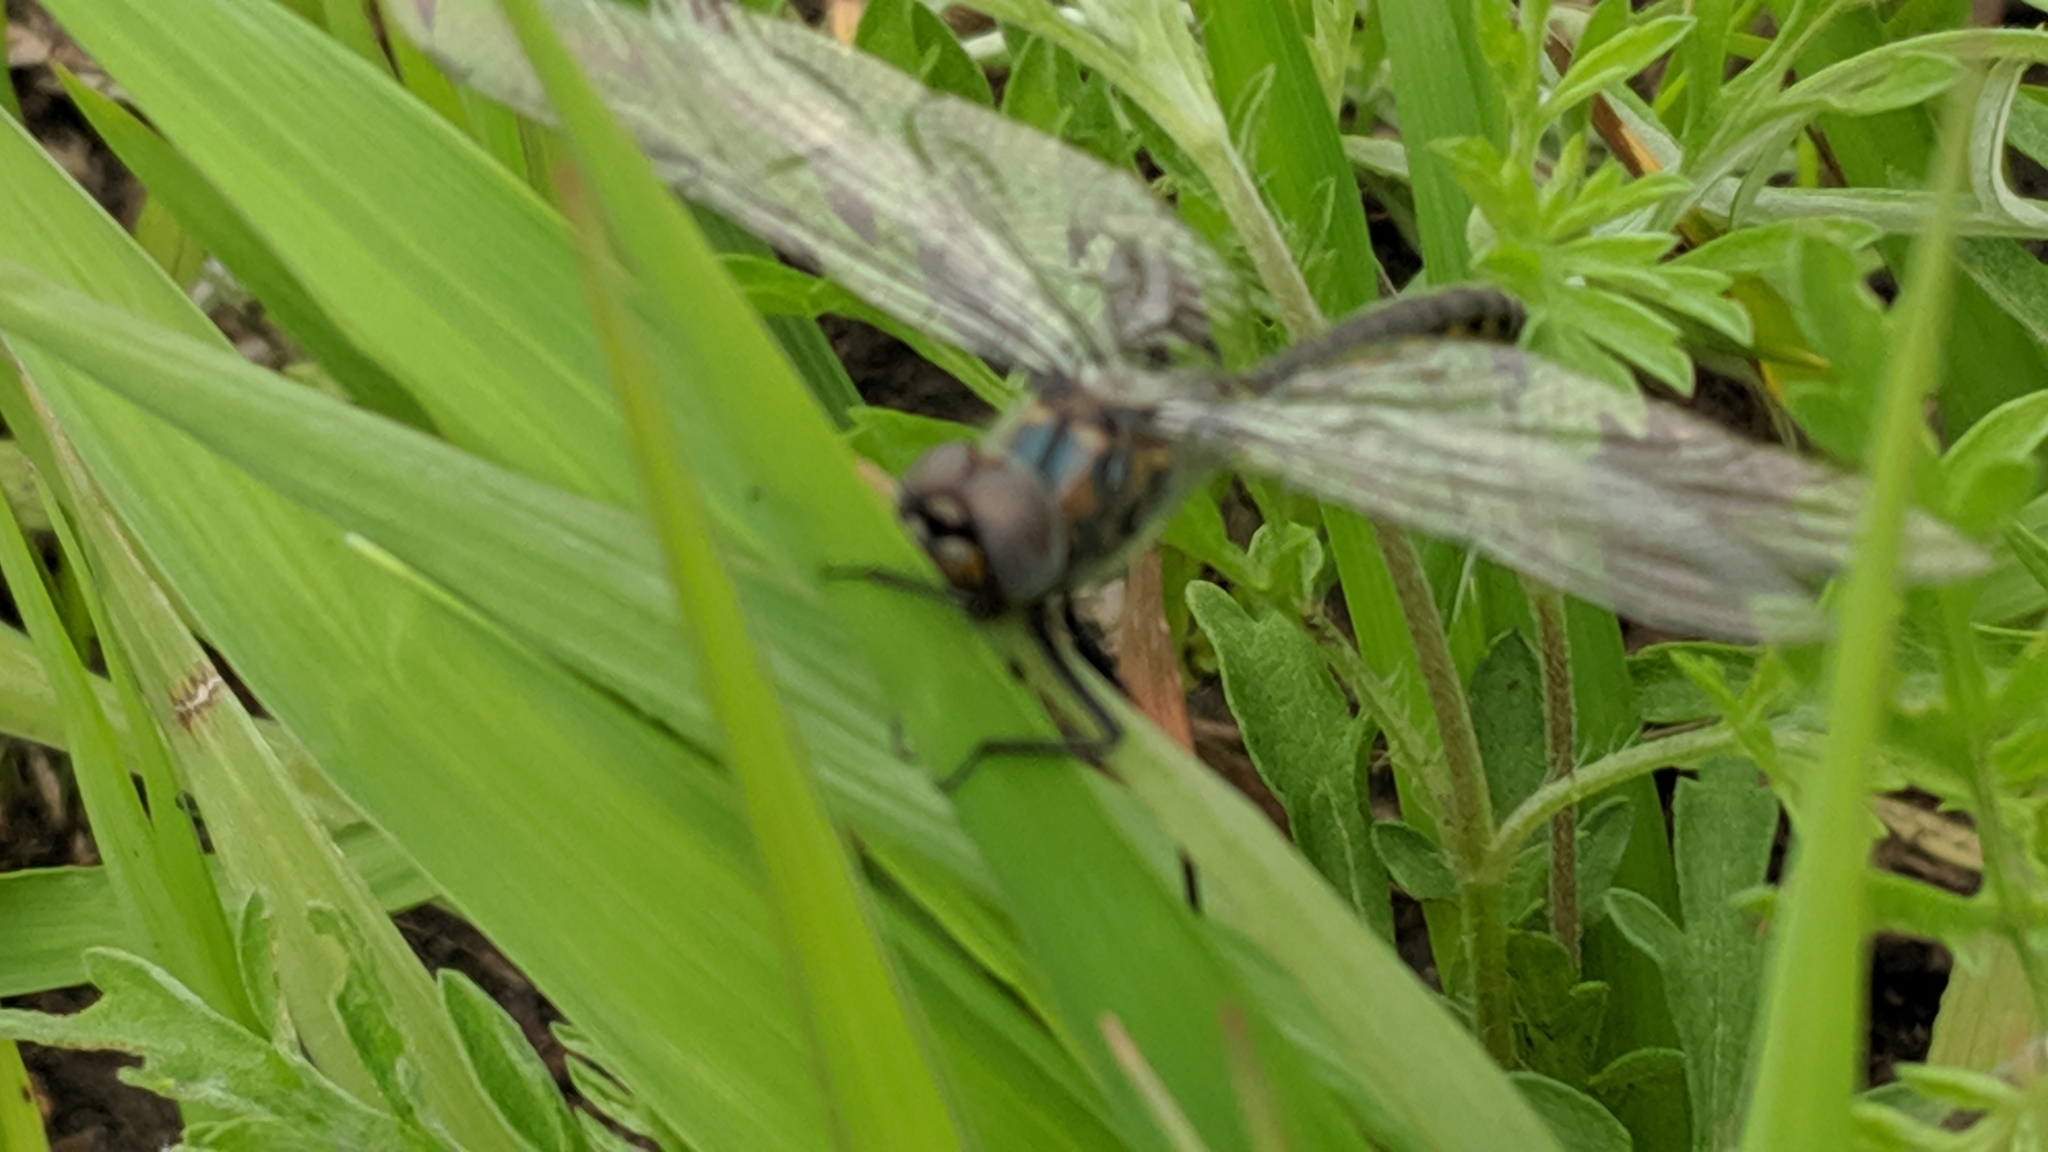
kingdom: Animalia
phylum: Arthropoda
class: Insecta
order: Odonata
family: Corduliidae
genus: Epitheca
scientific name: Epitheca cynosura
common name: Common baskettail
